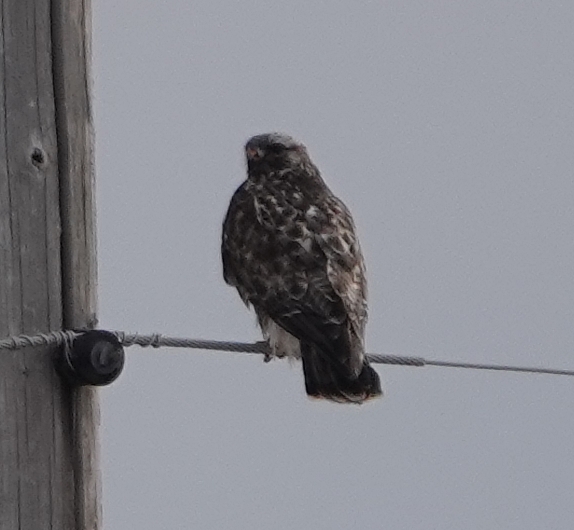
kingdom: Animalia
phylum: Chordata
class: Aves
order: Accipitriformes
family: Accipitridae
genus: Buteo
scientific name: Buteo lagopus
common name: Rough-legged buzzard
